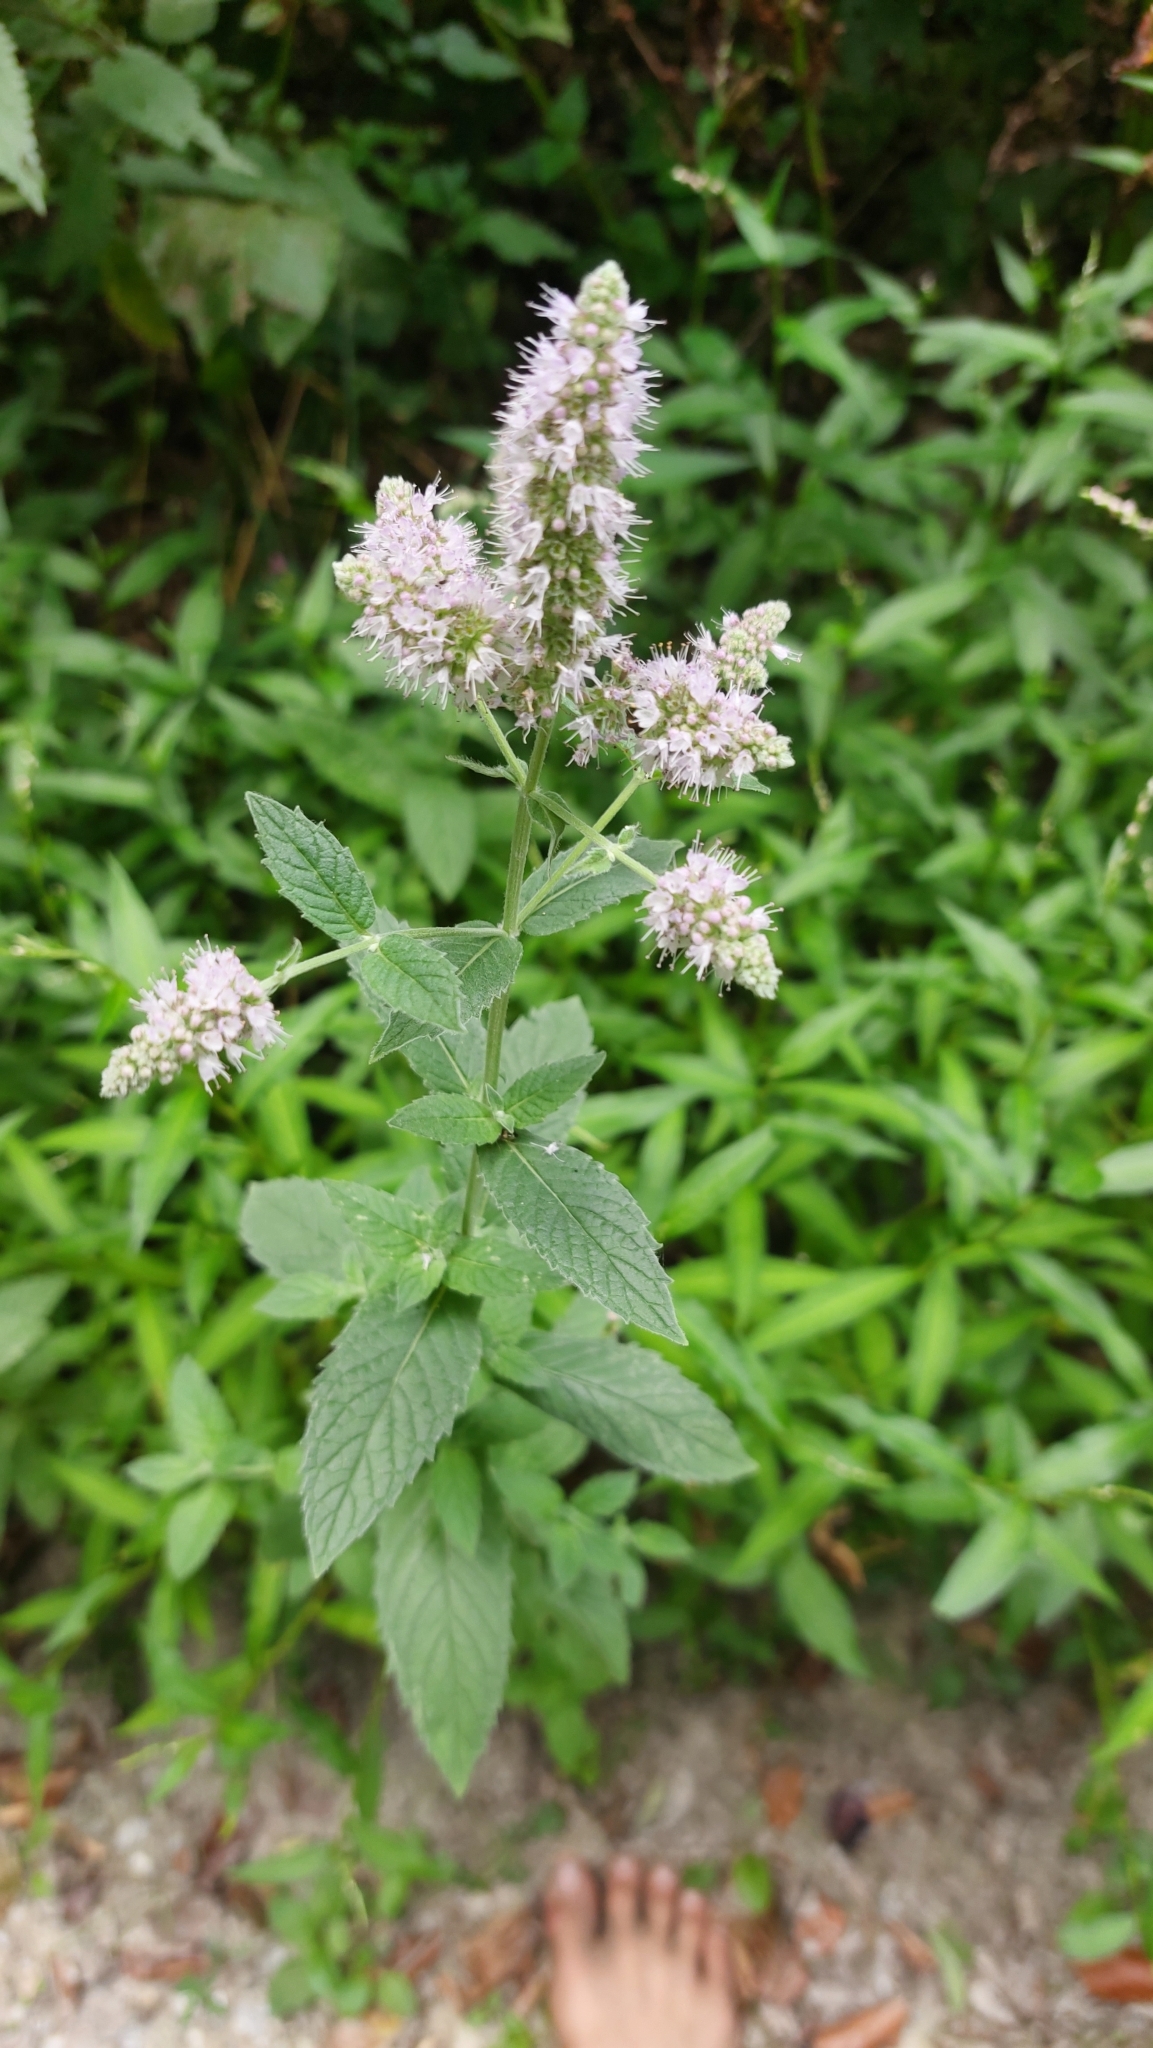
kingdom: Plantae
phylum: Tracheophyta
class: Magnoliopsida
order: Lamiales
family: Lamiaceae
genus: Mentha
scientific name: Mentha longifolia
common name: Horse mint
